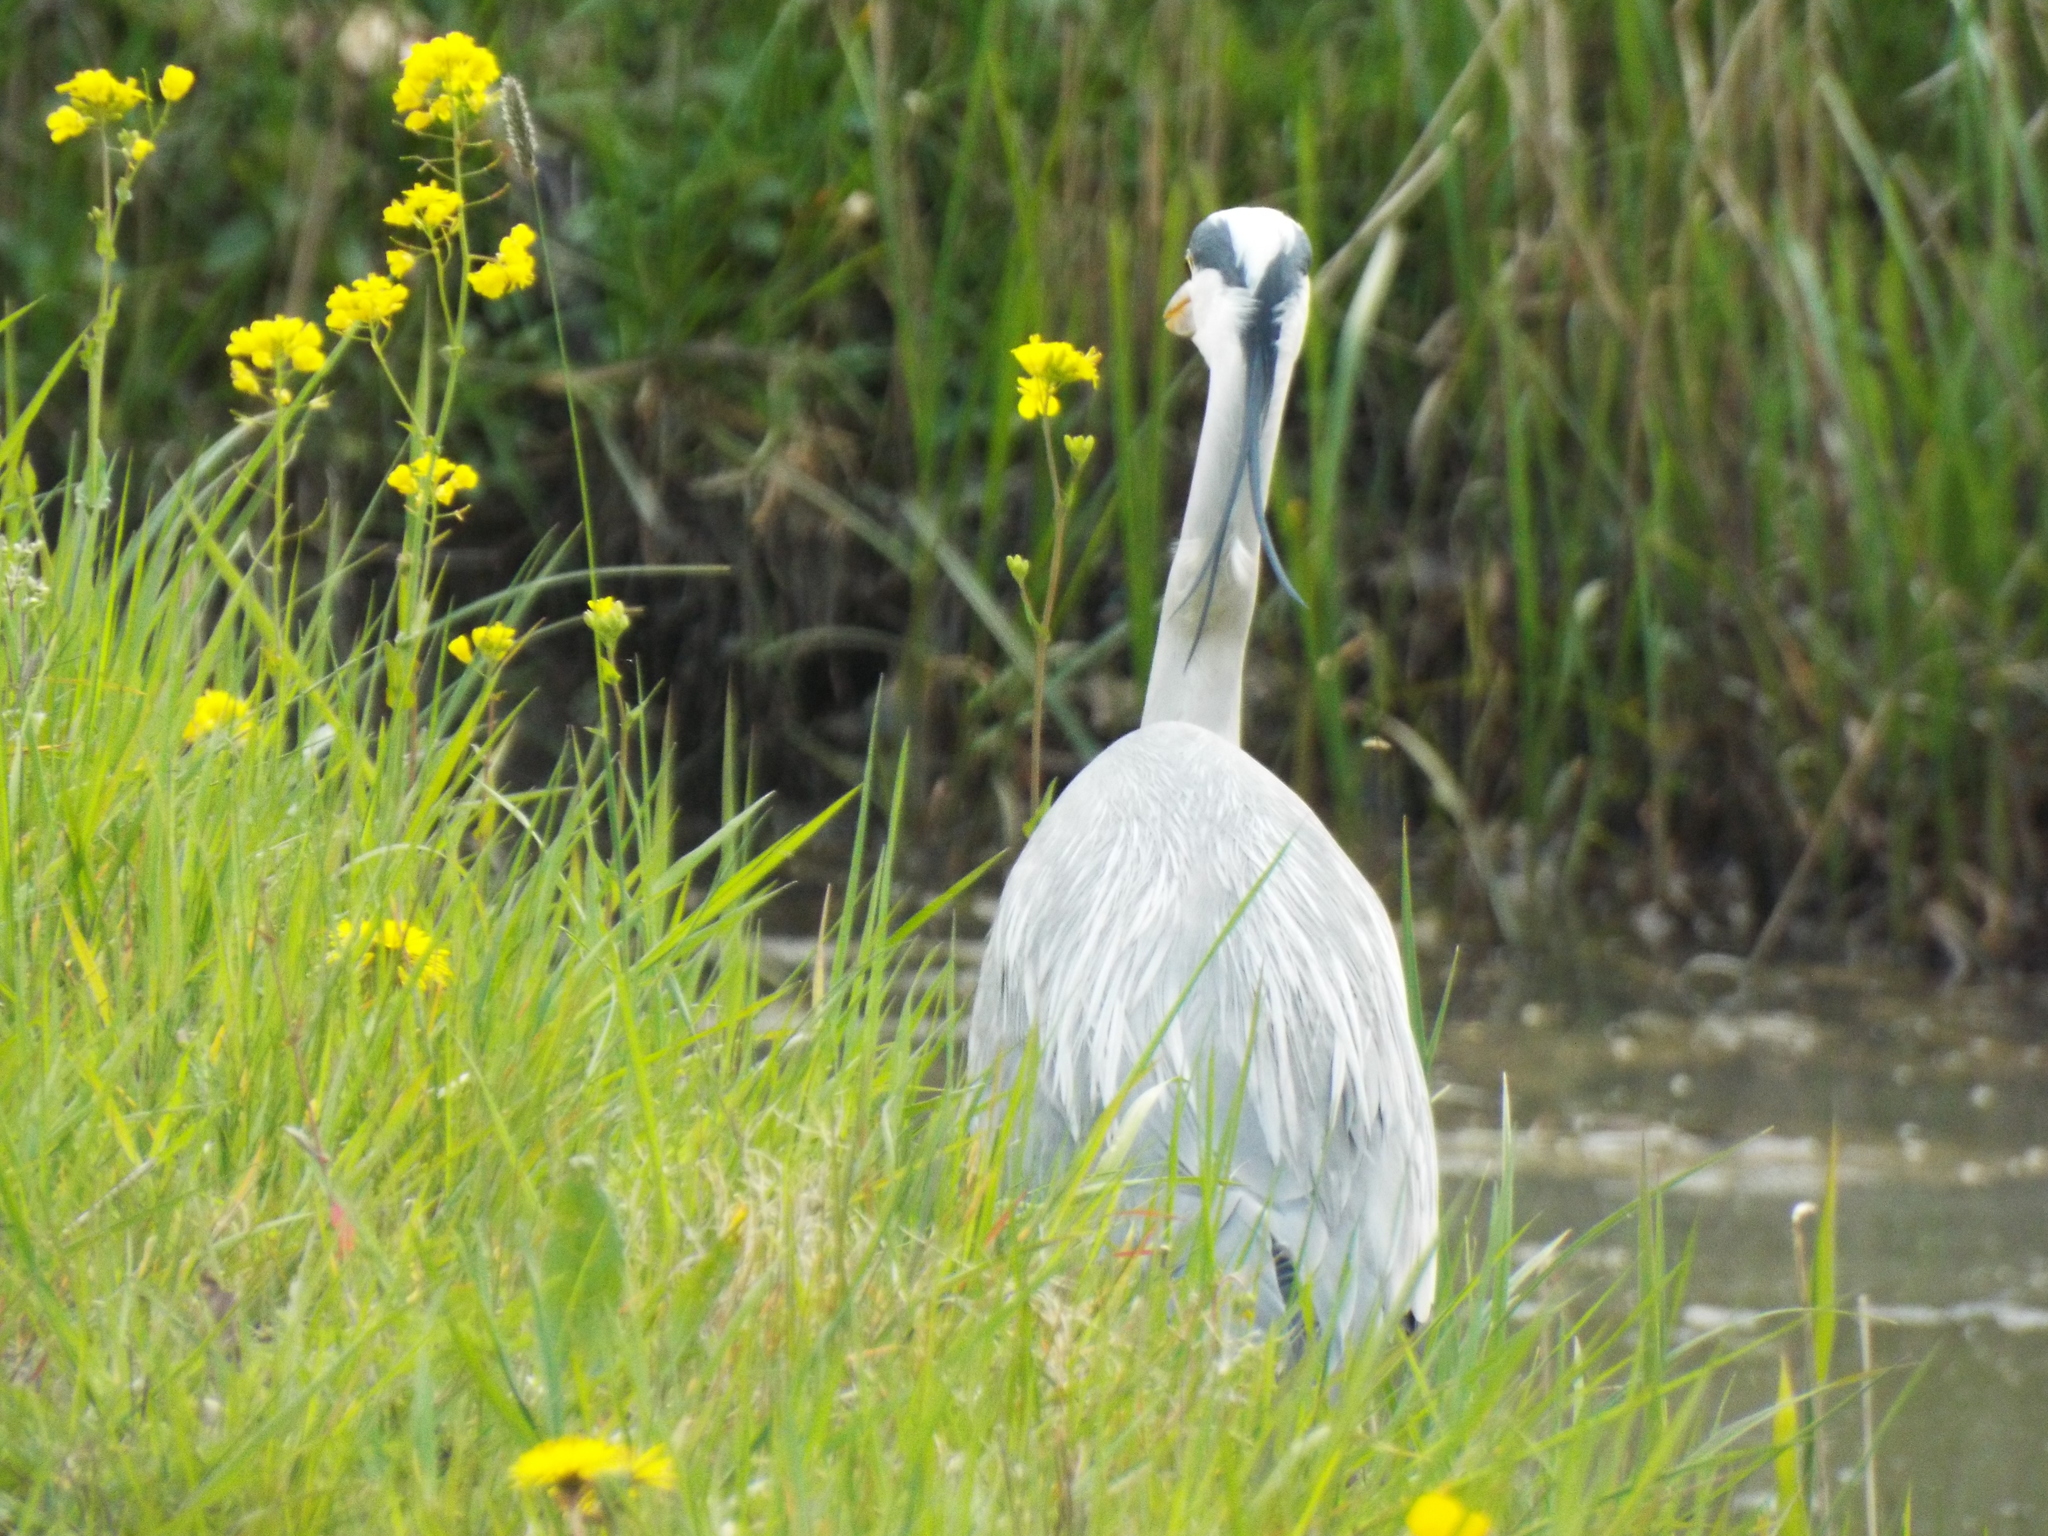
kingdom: Animalia
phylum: Chordata
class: Aves
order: Pelecaniformes
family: Ardeidae
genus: Ardea
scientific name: Ardea cinerea
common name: Grey heron
